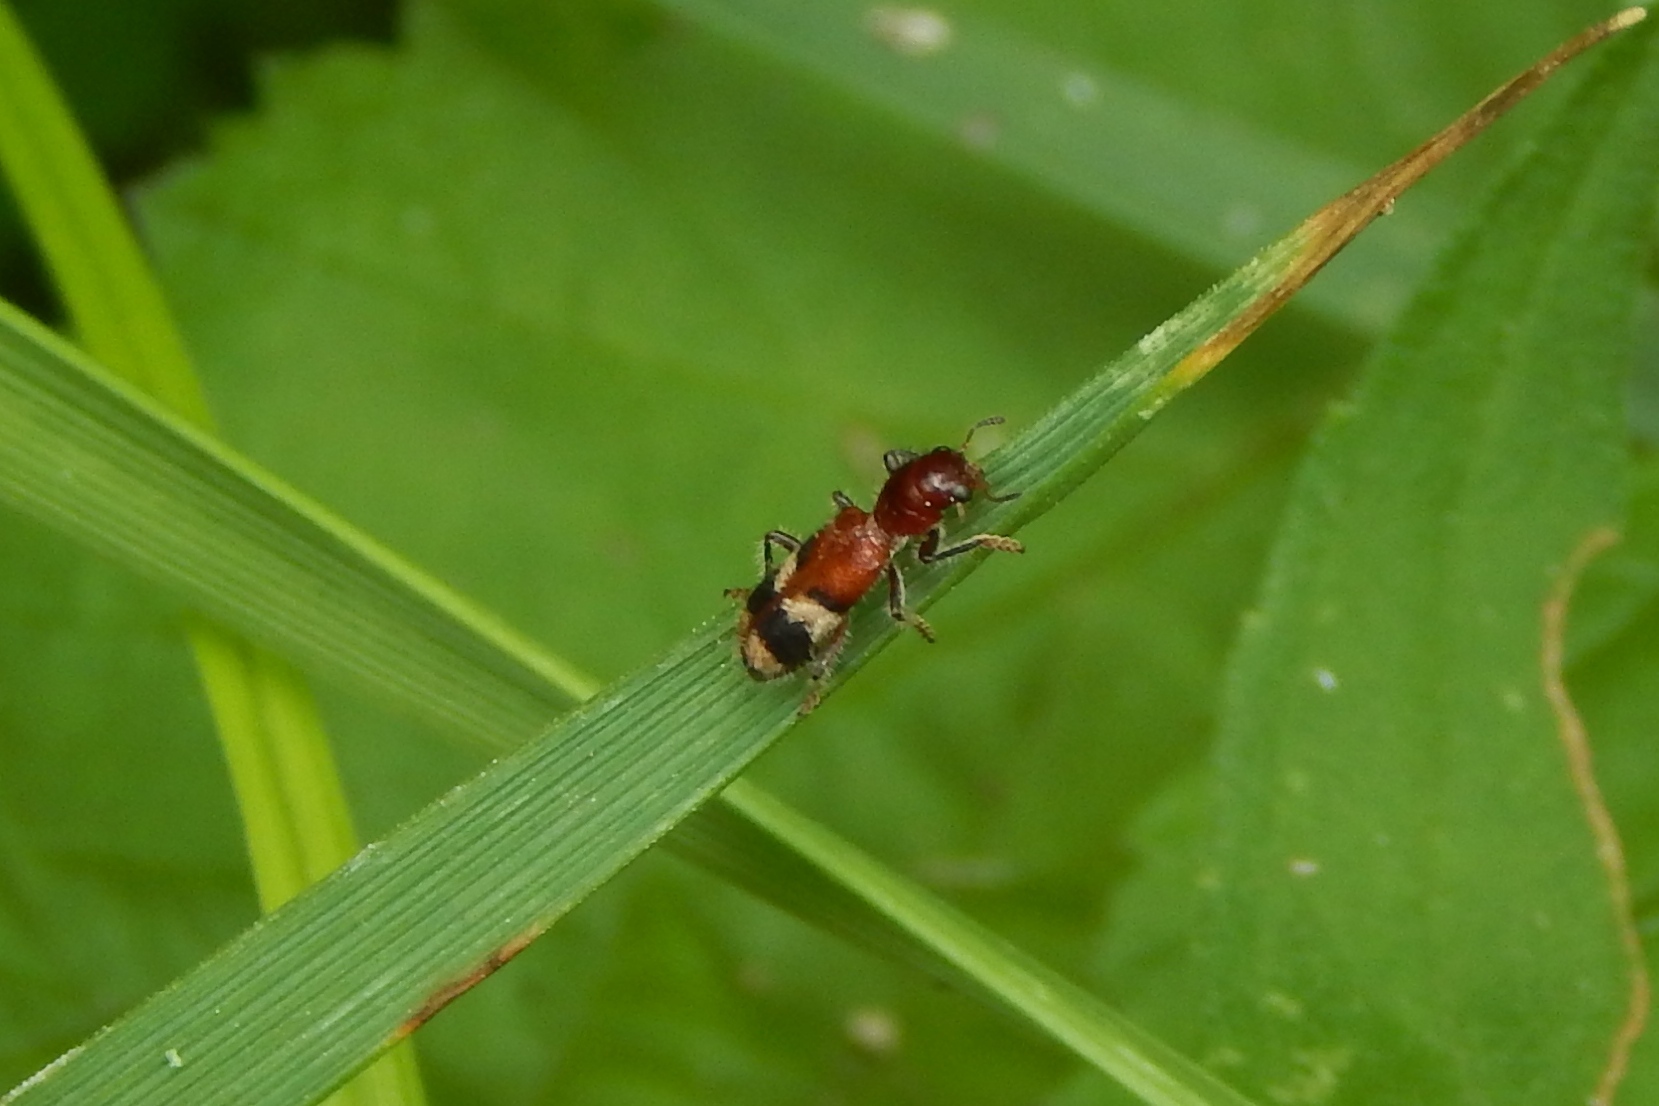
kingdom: Animalia
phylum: Arthropoda
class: Insecta
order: Coleoptera
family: Cleridae
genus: Enoclerus
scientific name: Enoclerus rosmarus
